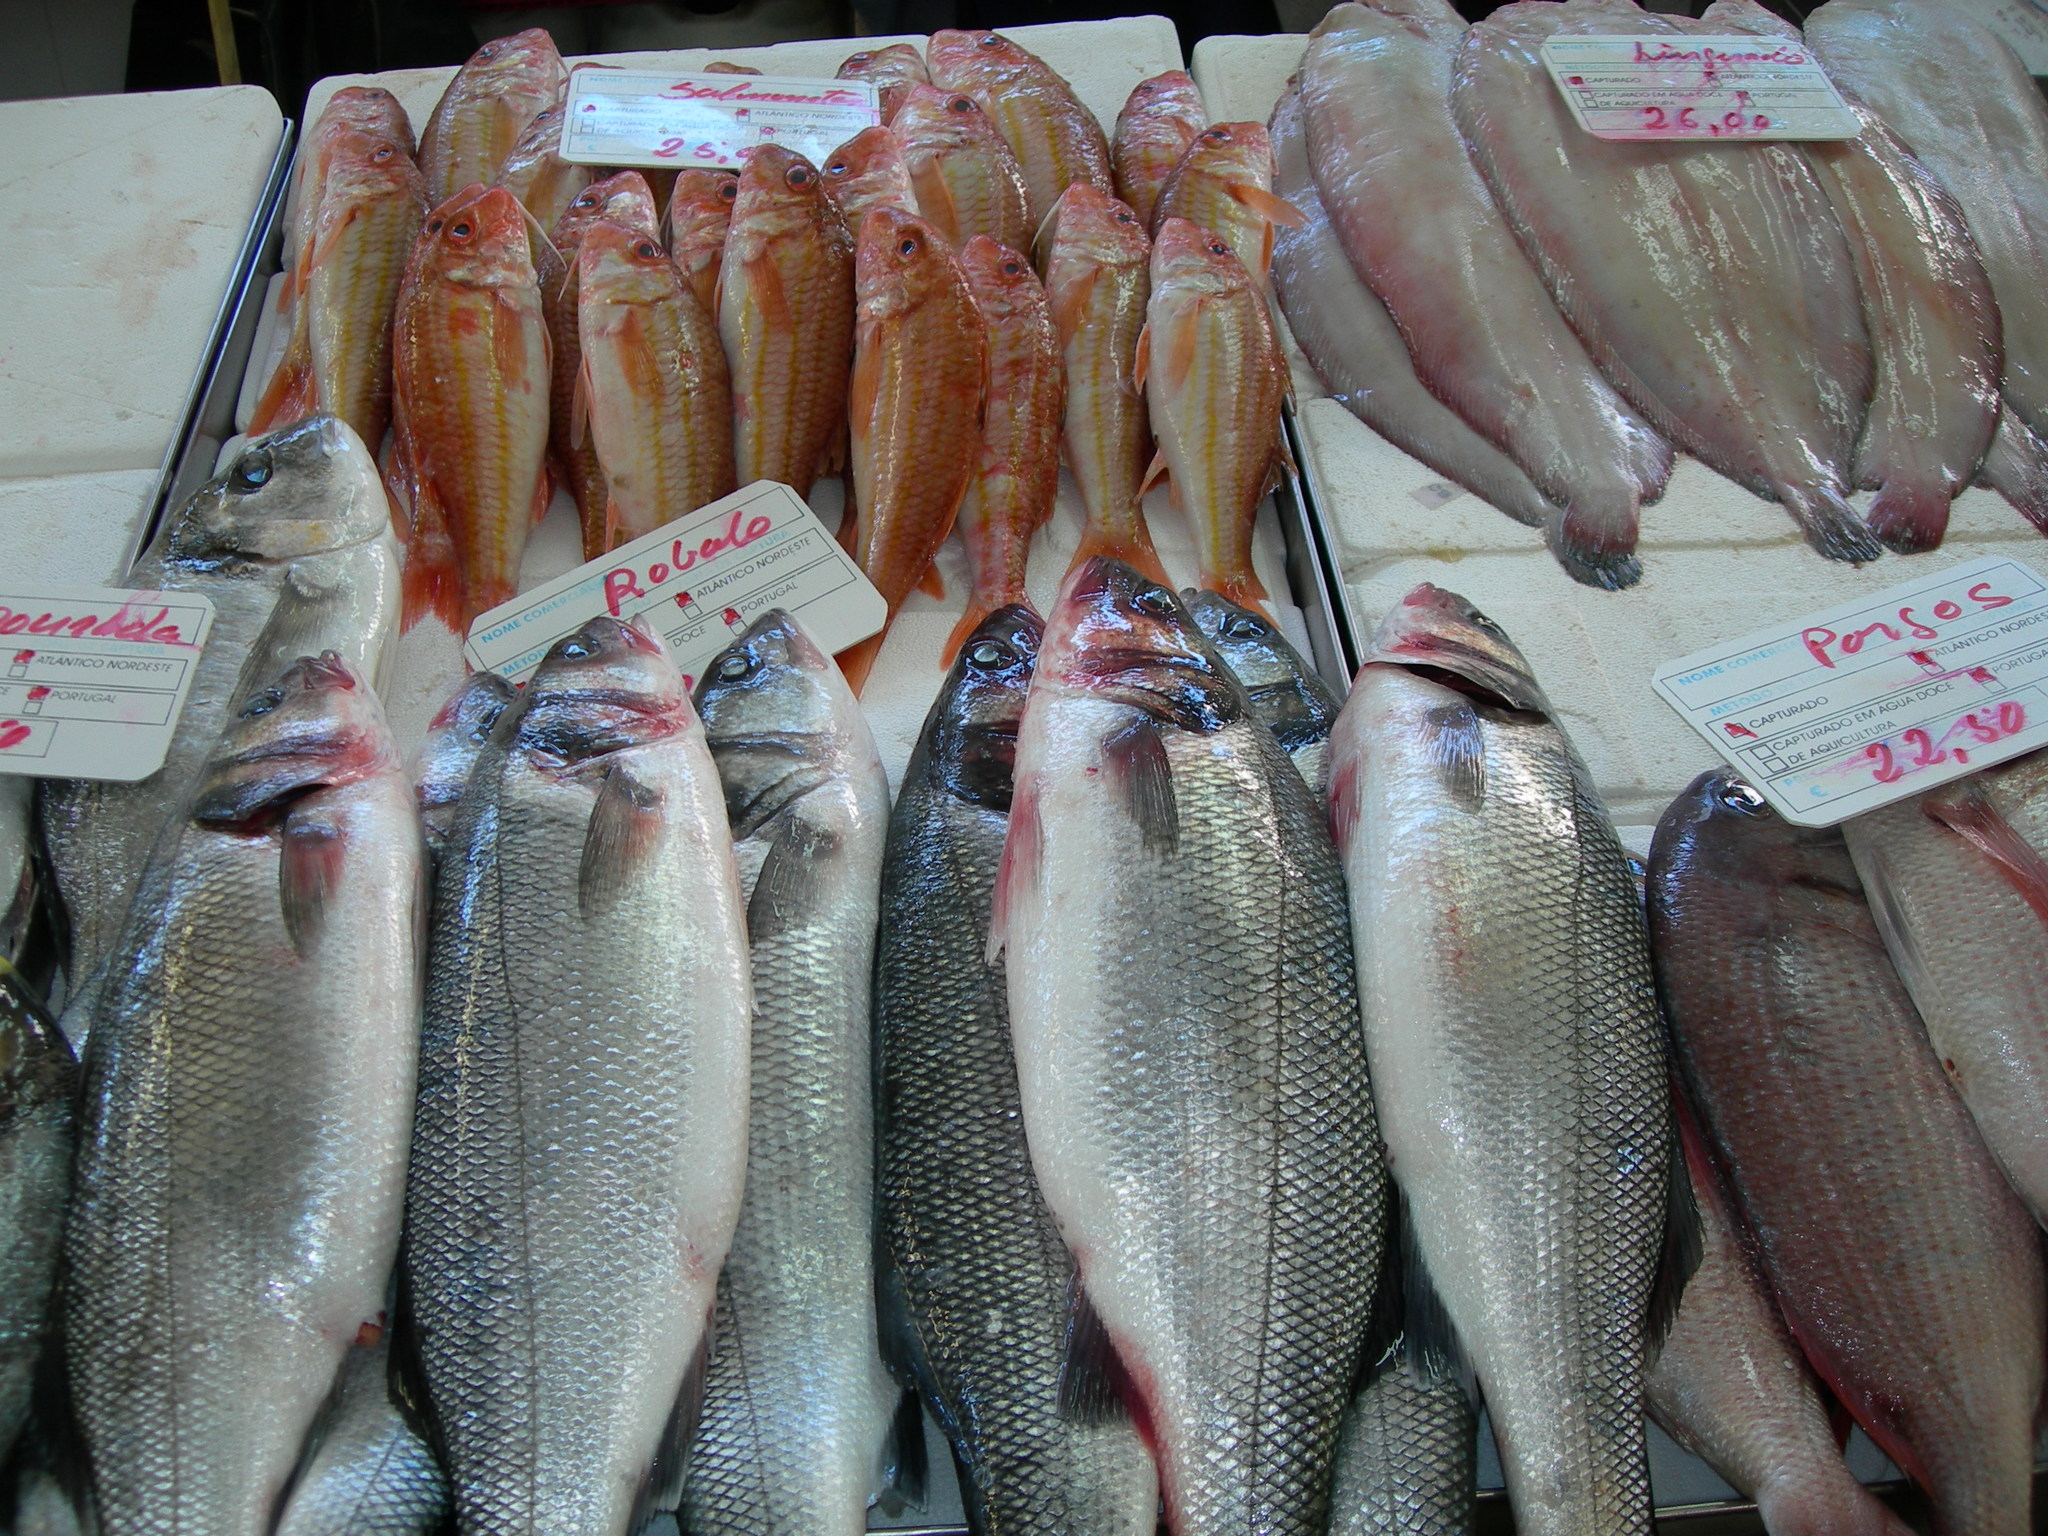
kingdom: Animalia
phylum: Chordata
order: Perciformes
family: Moronidae
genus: Dicentrarchus
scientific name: Dicentrarchus labrax
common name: European seabass
